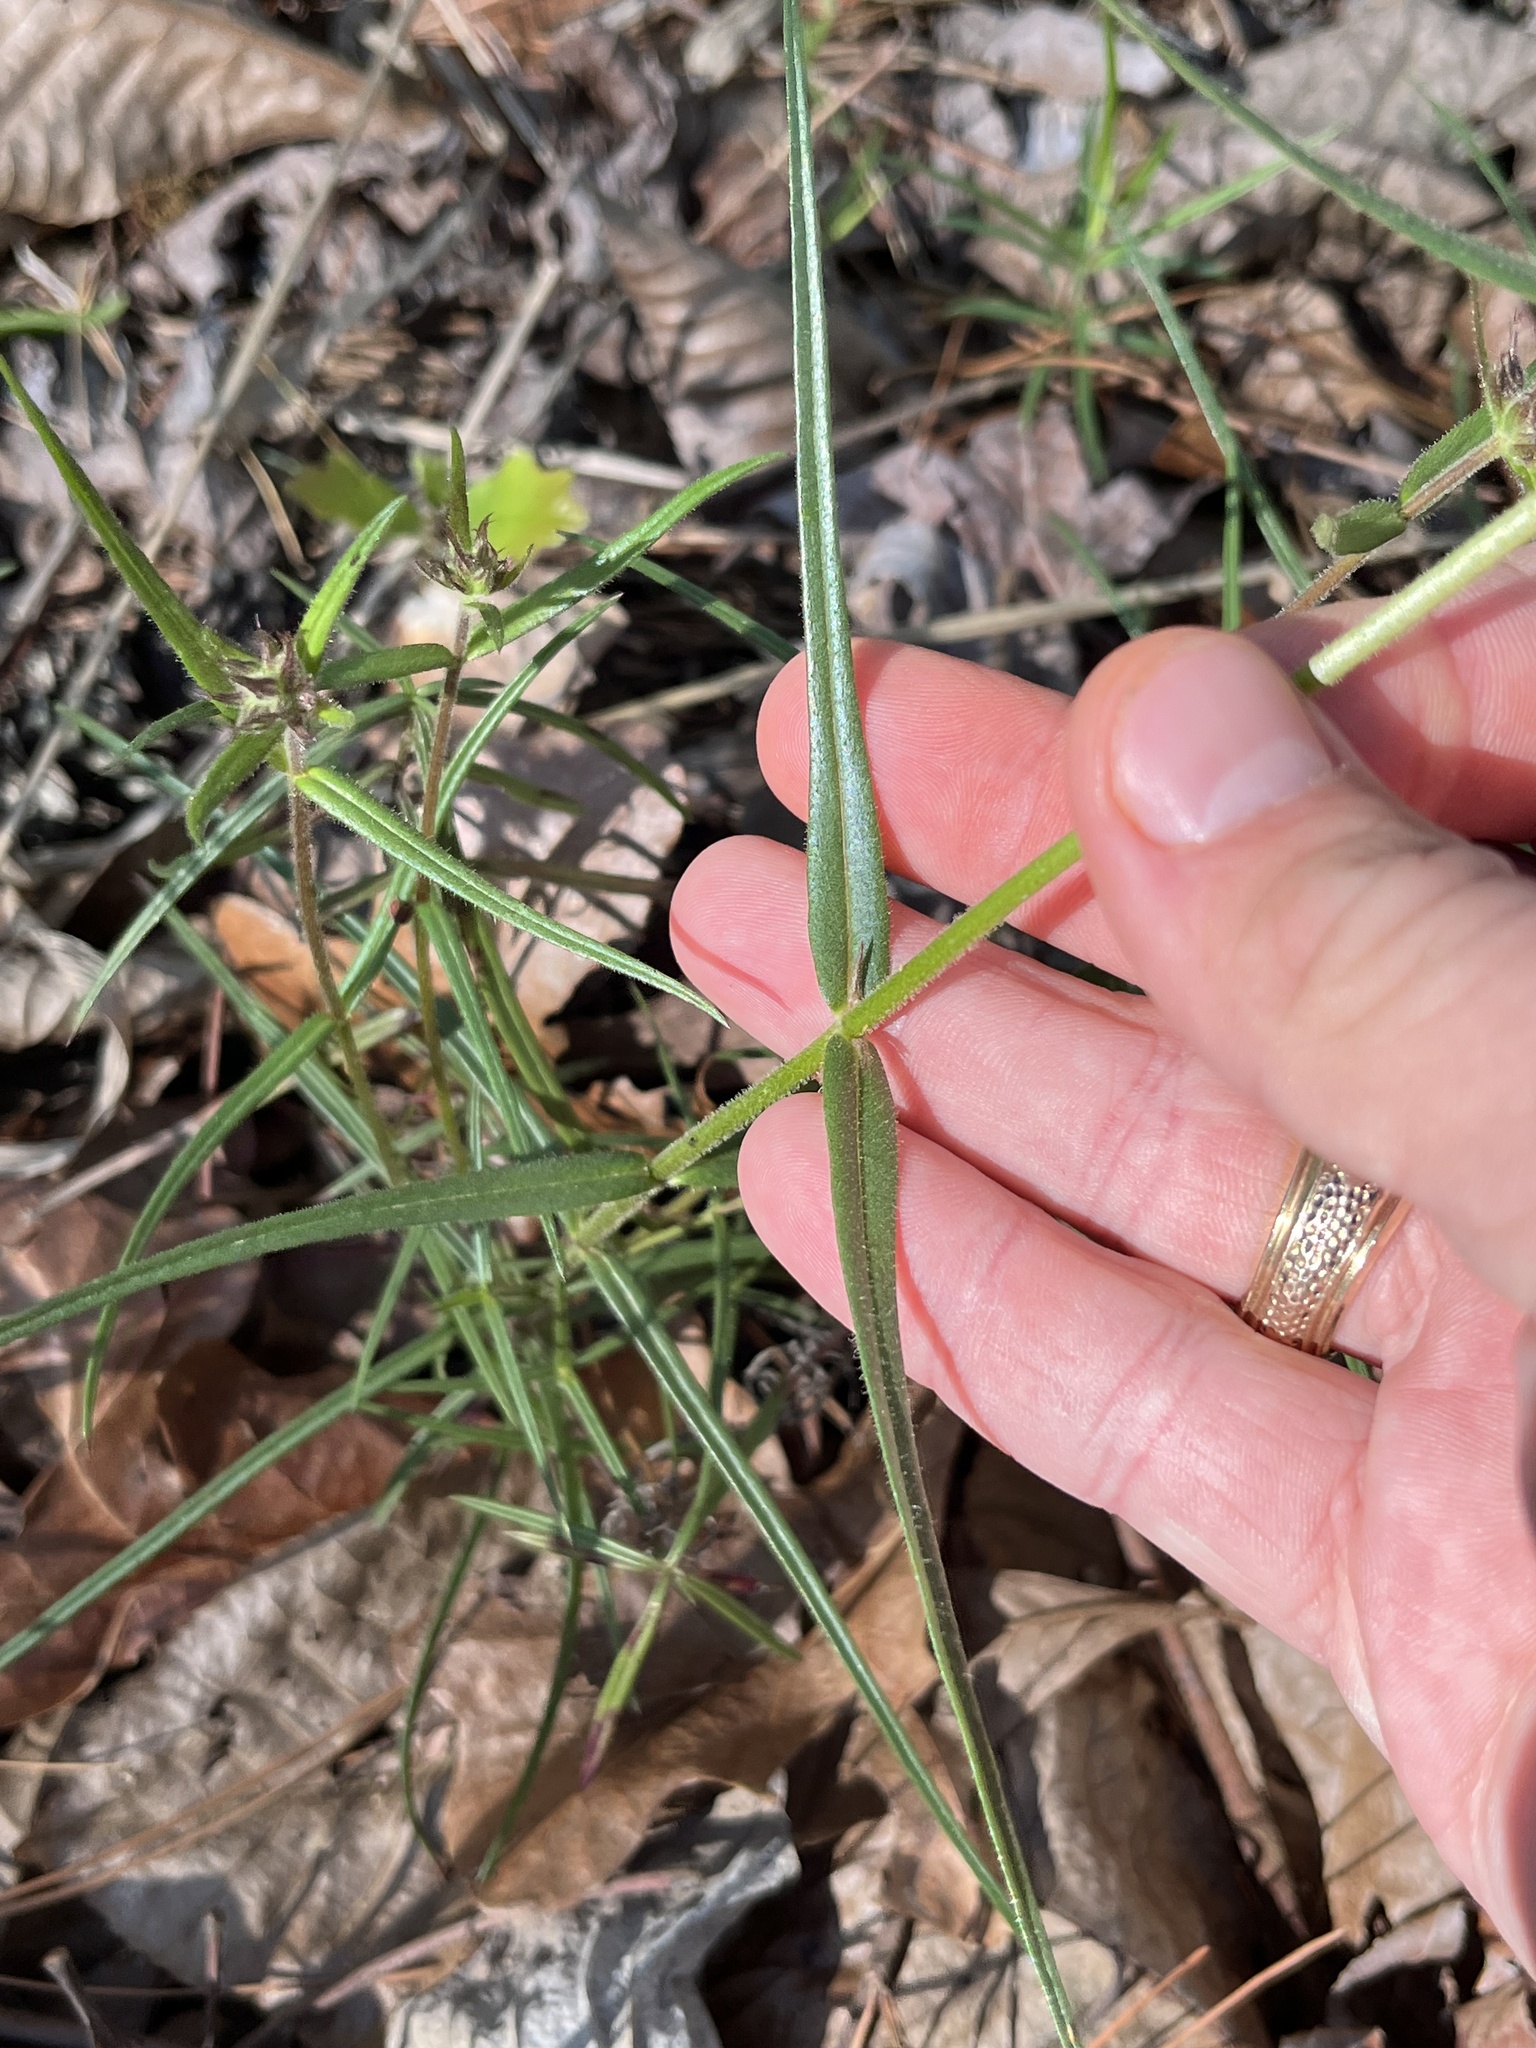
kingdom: Plantae
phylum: Tracheophyta
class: Magnoliopsida
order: Ericales
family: Polemoniaceae
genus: Phlox
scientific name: Phlox pilosa
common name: Prairie phlox
